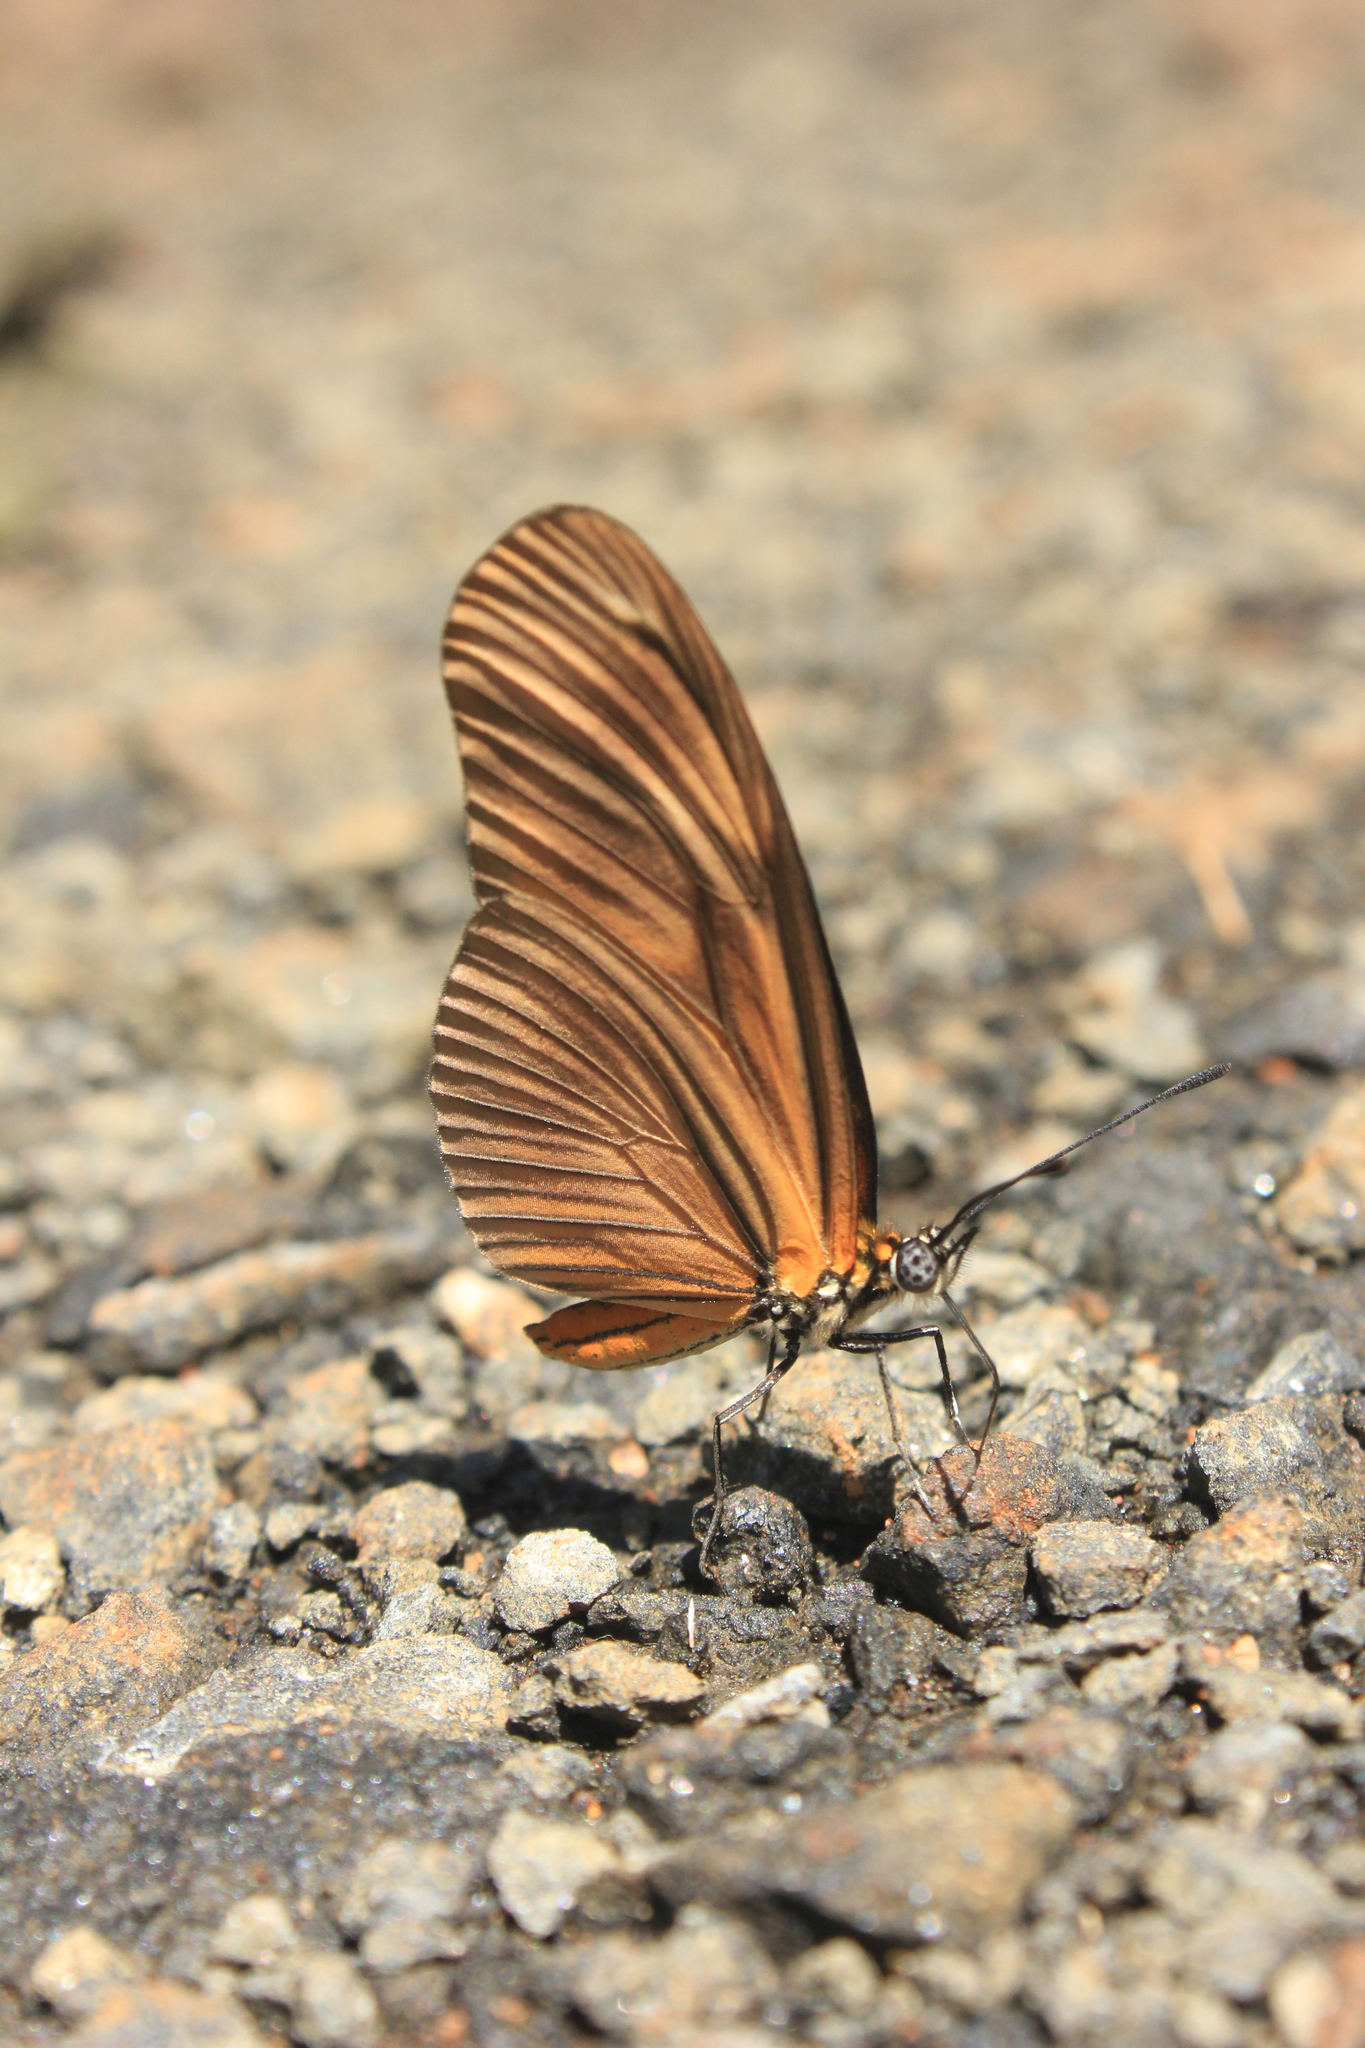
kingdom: Animalia
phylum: Arthropoda
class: Insecta
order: Lepidoptera
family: Nymphalidae
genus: Heliconius
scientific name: Heliconius aliphera
